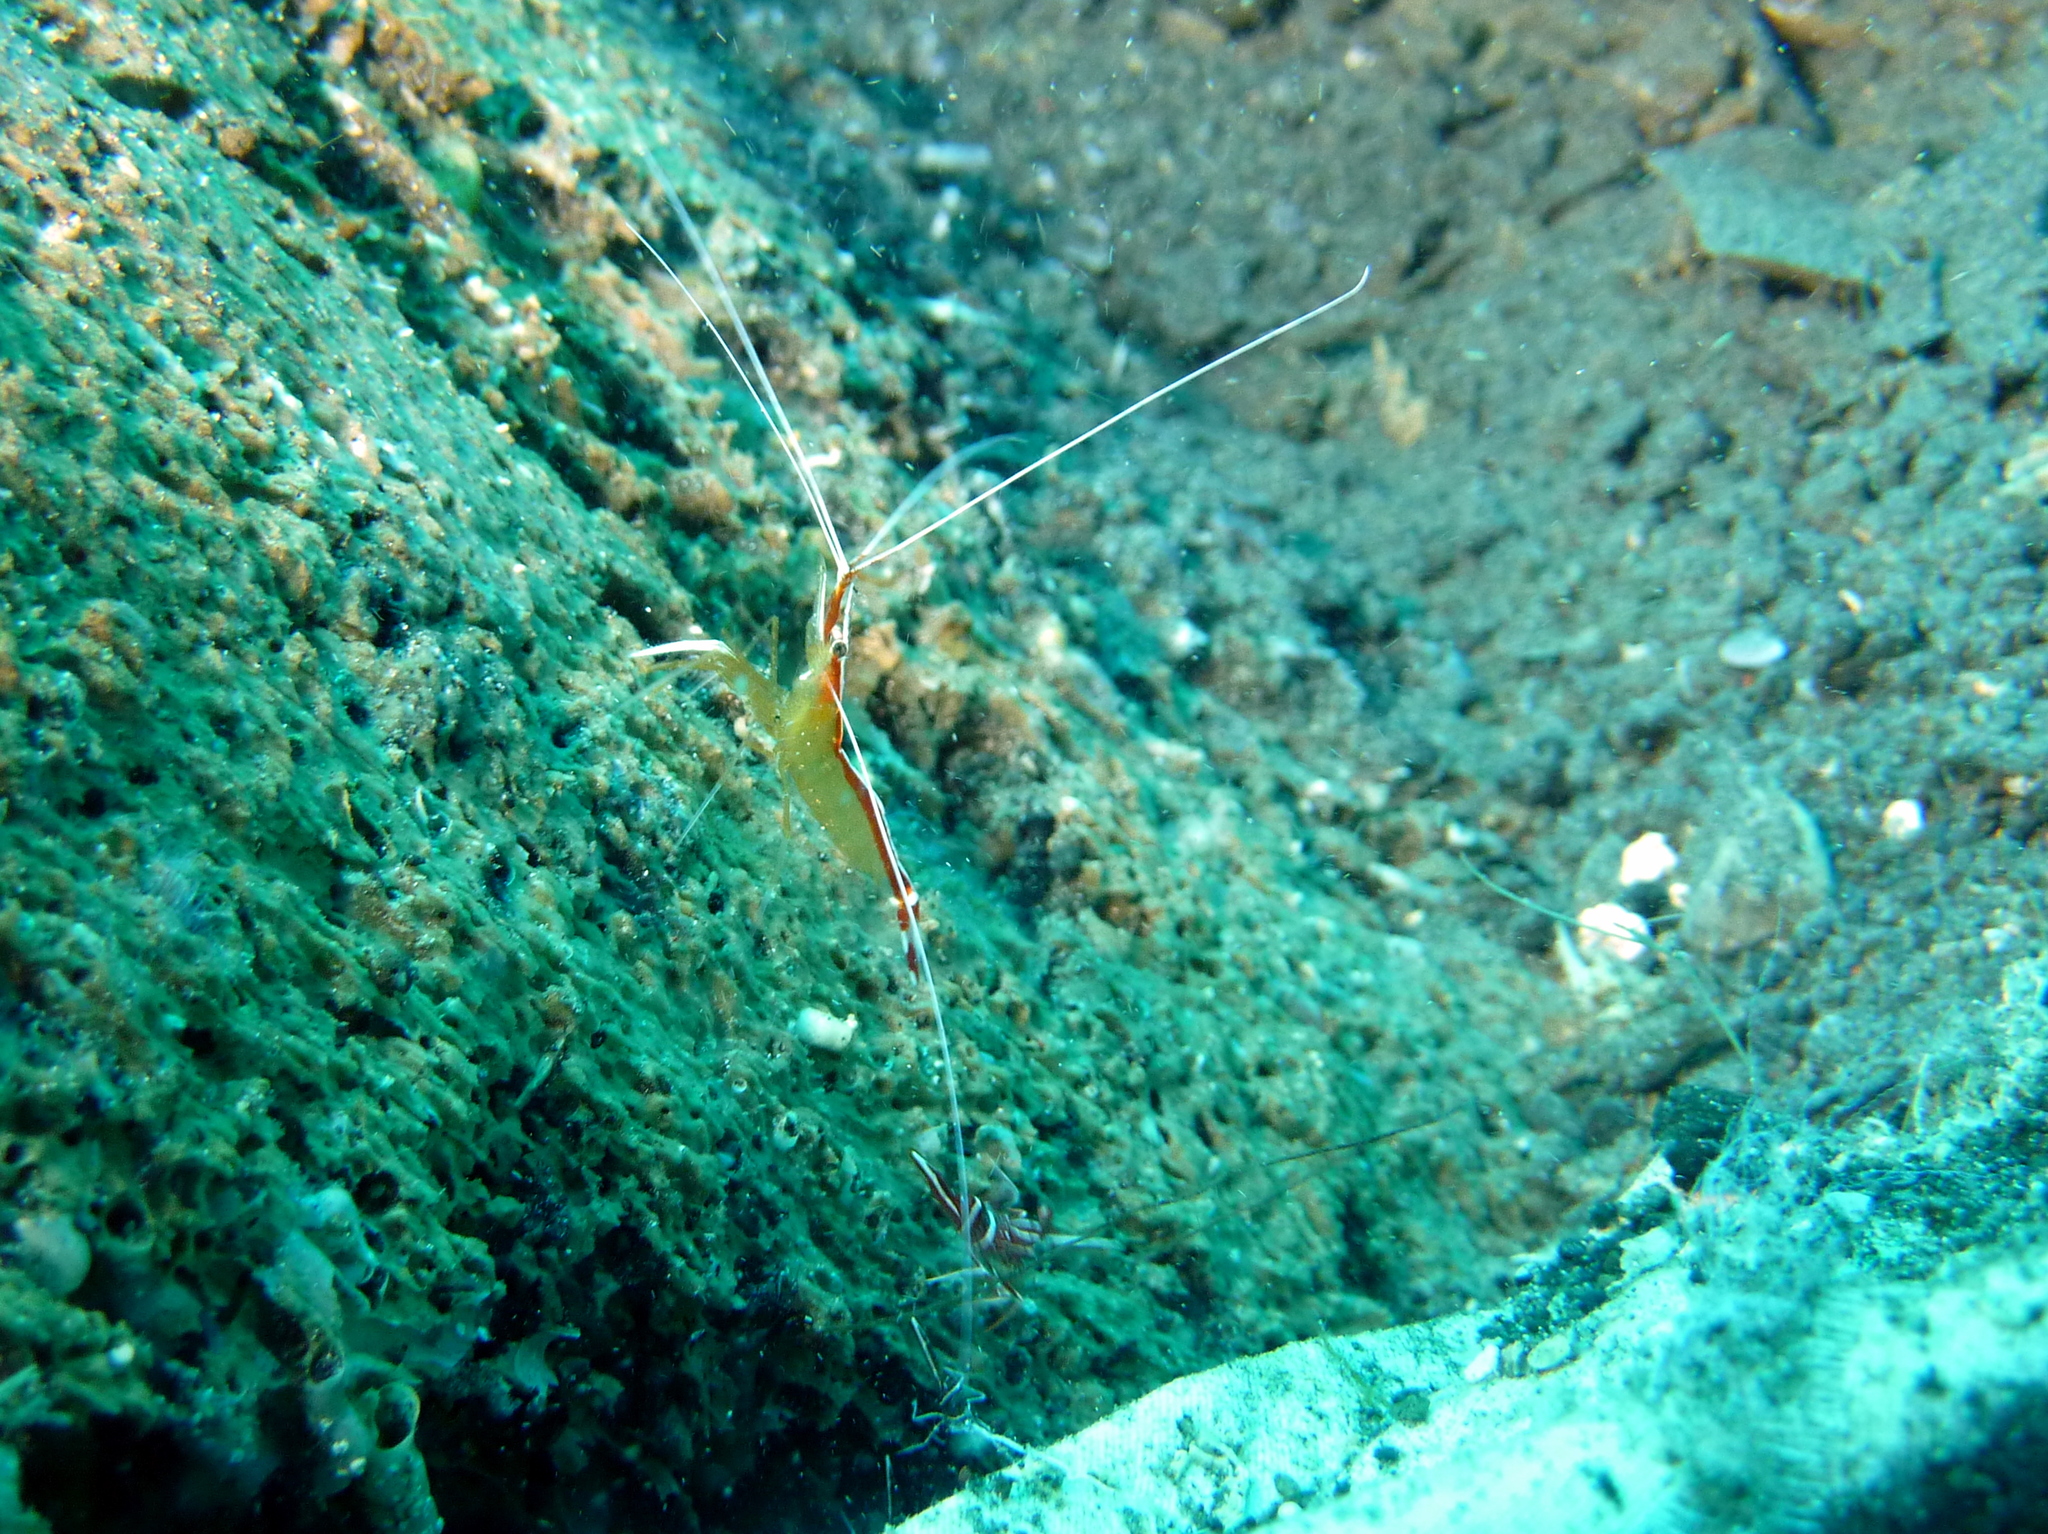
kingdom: Animalia
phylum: Arthropoda
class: Malacostraca
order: Decapoda
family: Lysmatidae
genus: Lysmata
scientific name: Lysmata amboinensis
